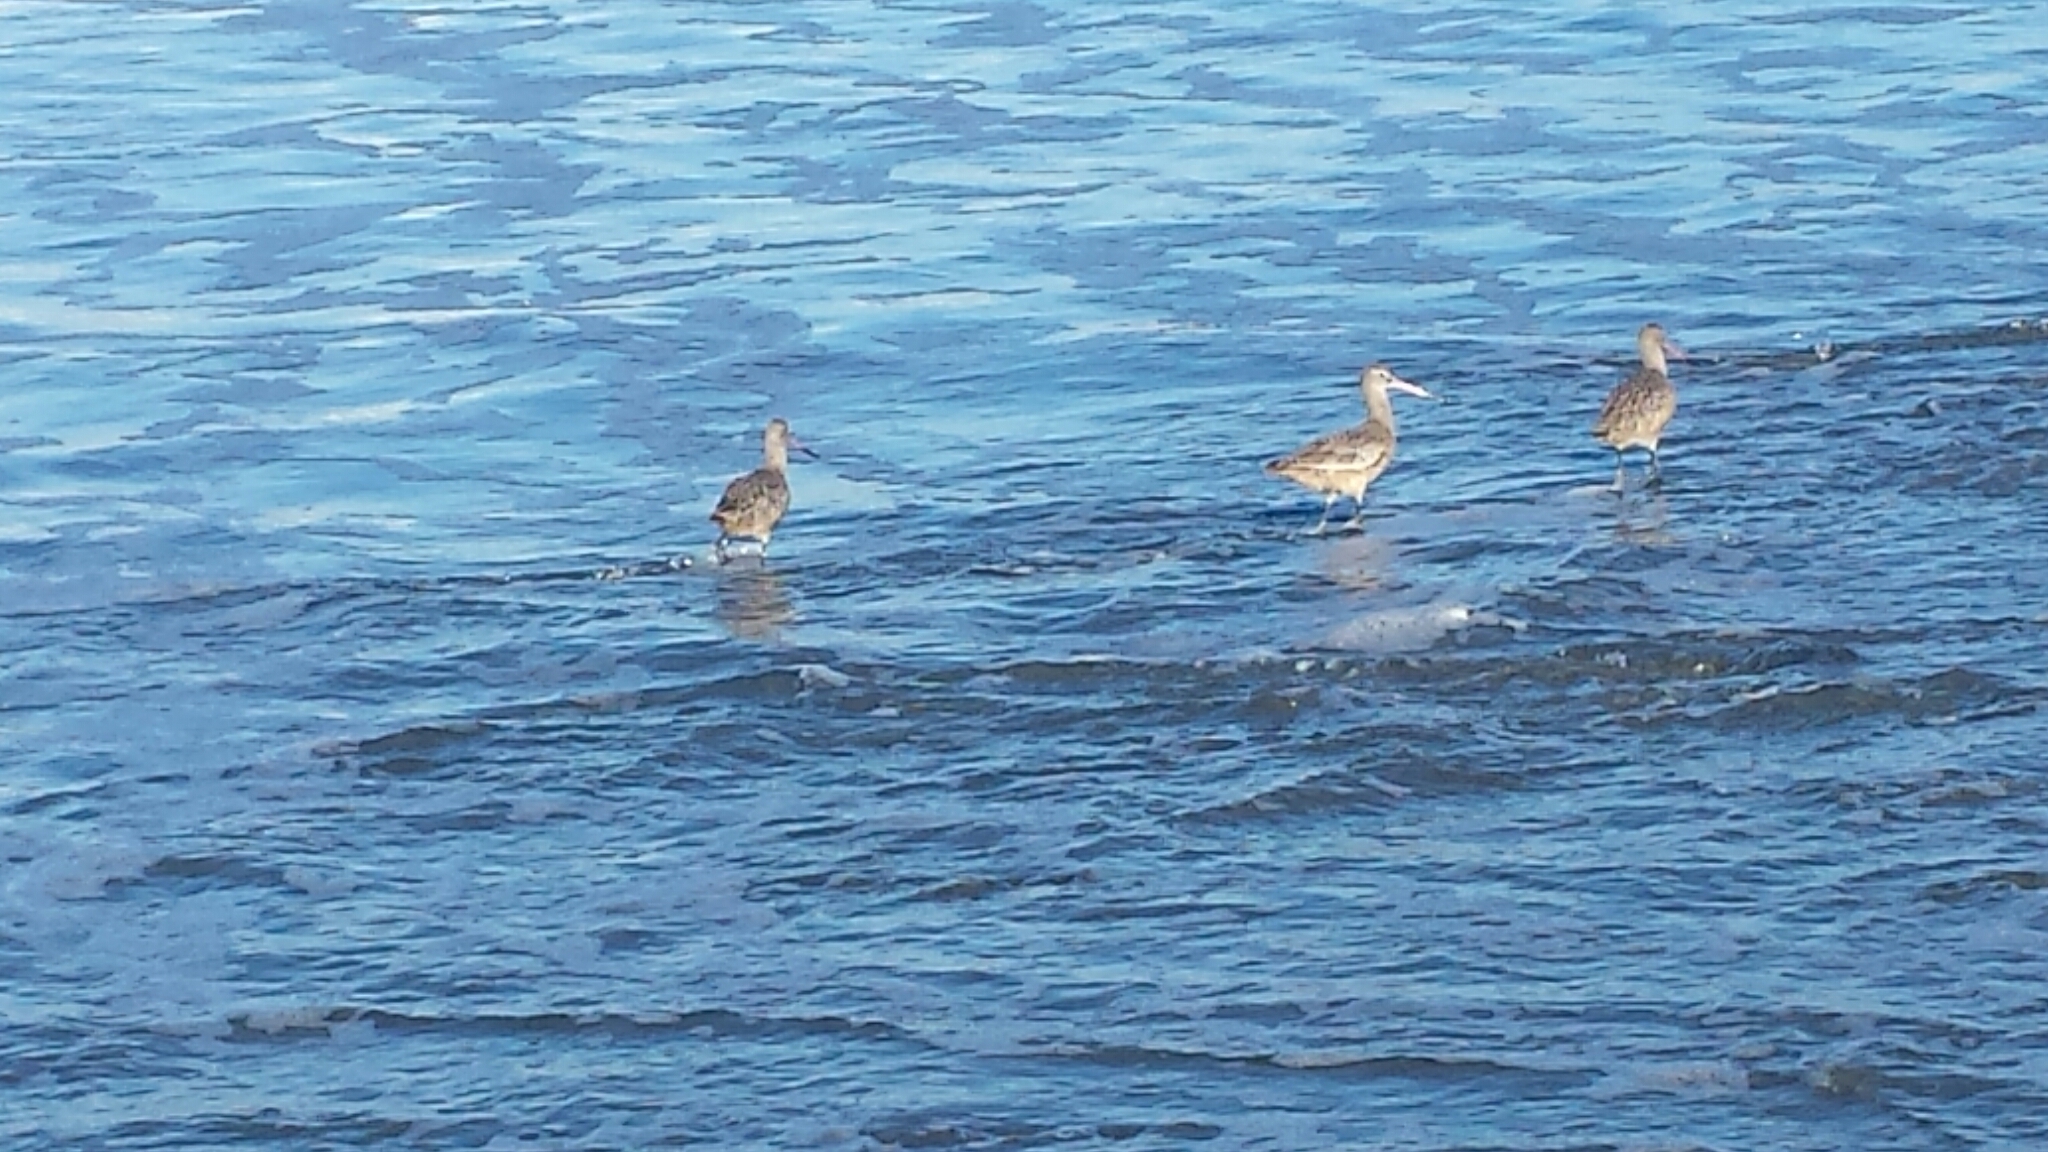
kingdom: Animalia
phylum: Chordata
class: Aves
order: Charadriiformes
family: Scolopacidae
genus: Limosa
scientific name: Limosa fedoa
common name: Marbled godwit
